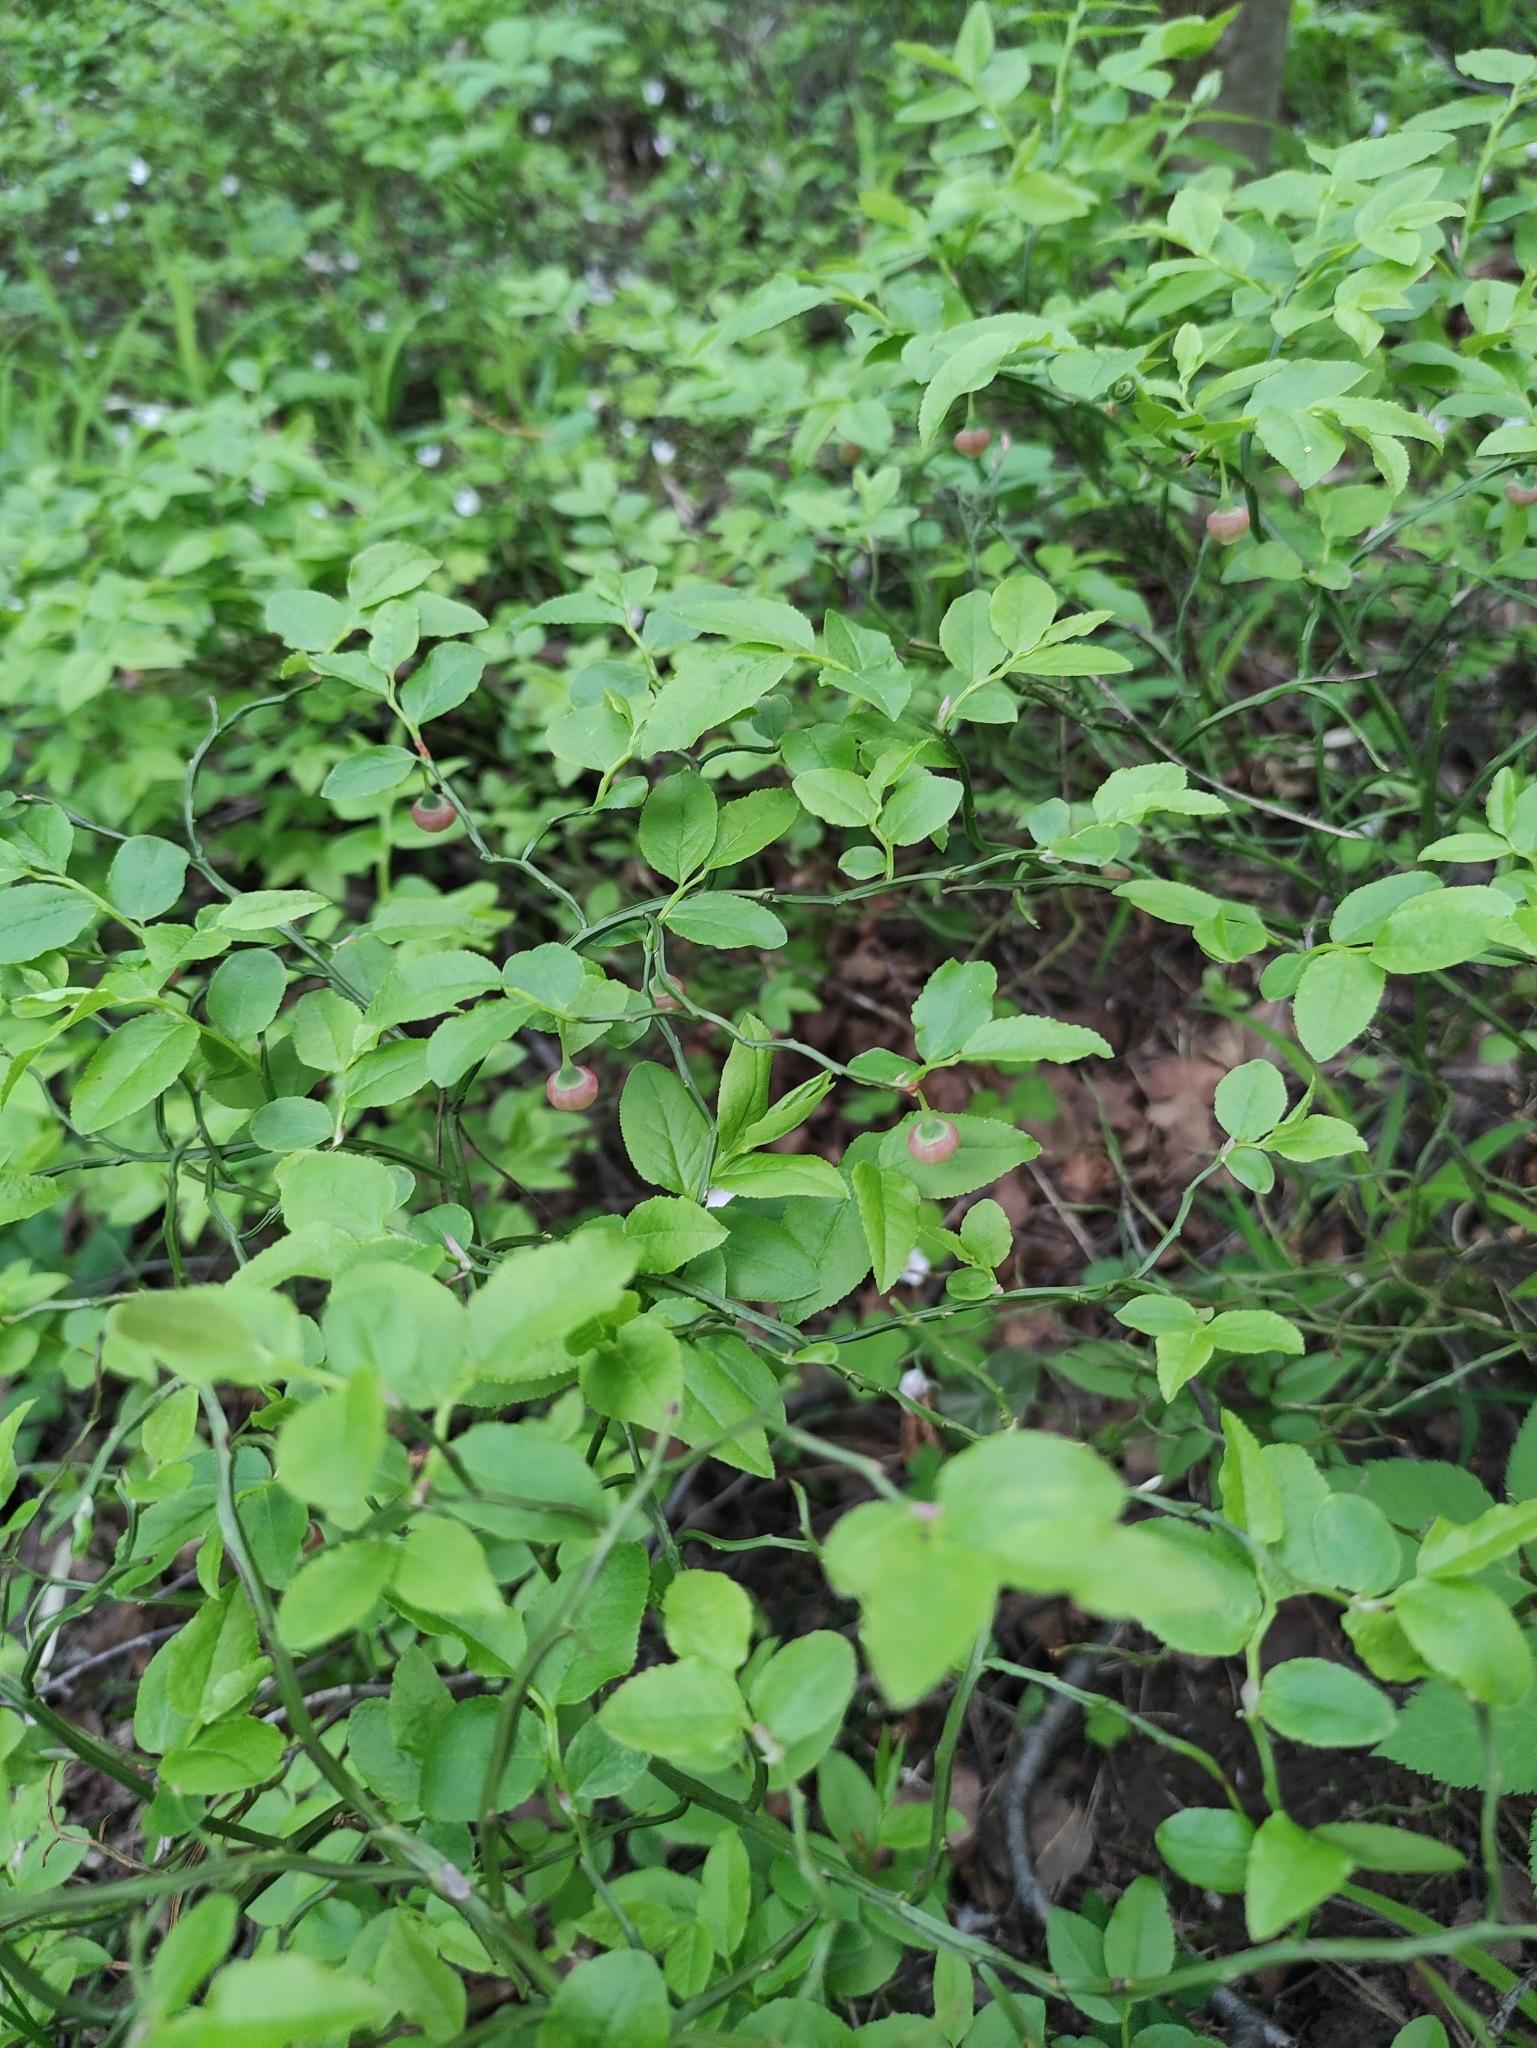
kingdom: Plantae
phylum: Tracheophyta
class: Magnoliopsida
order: Ericales
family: Ericaceae
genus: Vaccinium
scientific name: Vaccinium myrtillus
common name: Bilberry
